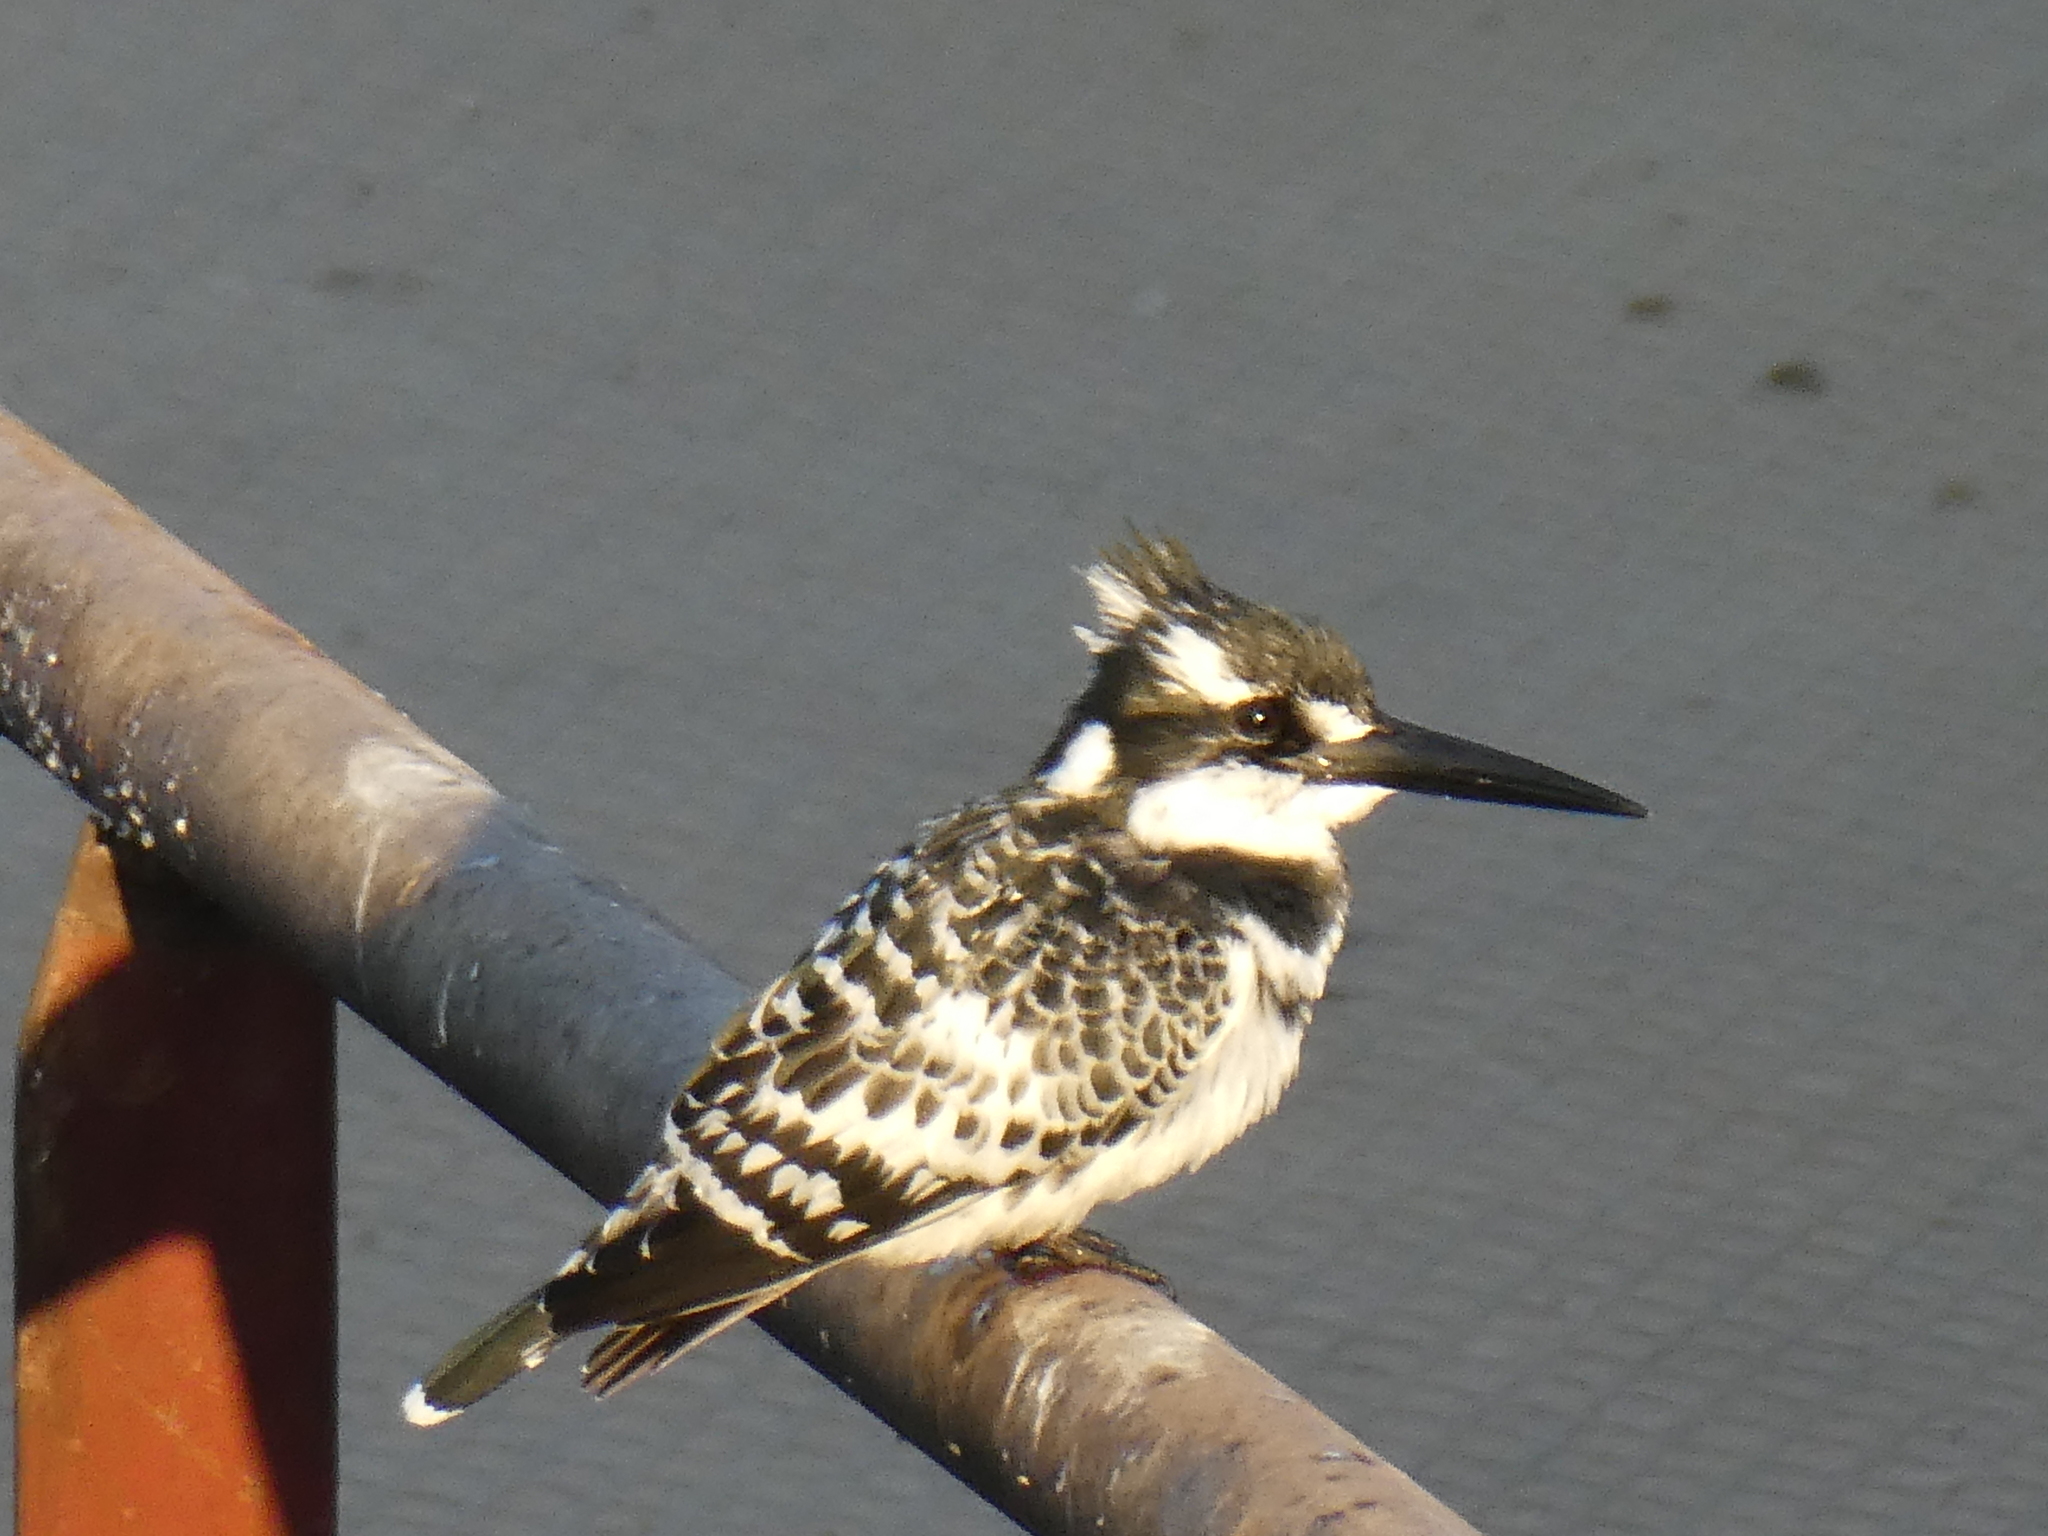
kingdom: Animalia
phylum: Chordata
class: Aves
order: Coraciiformes
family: Alcedinidae
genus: Ceryle
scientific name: Ceryle rudis
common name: Pied kingfisher
